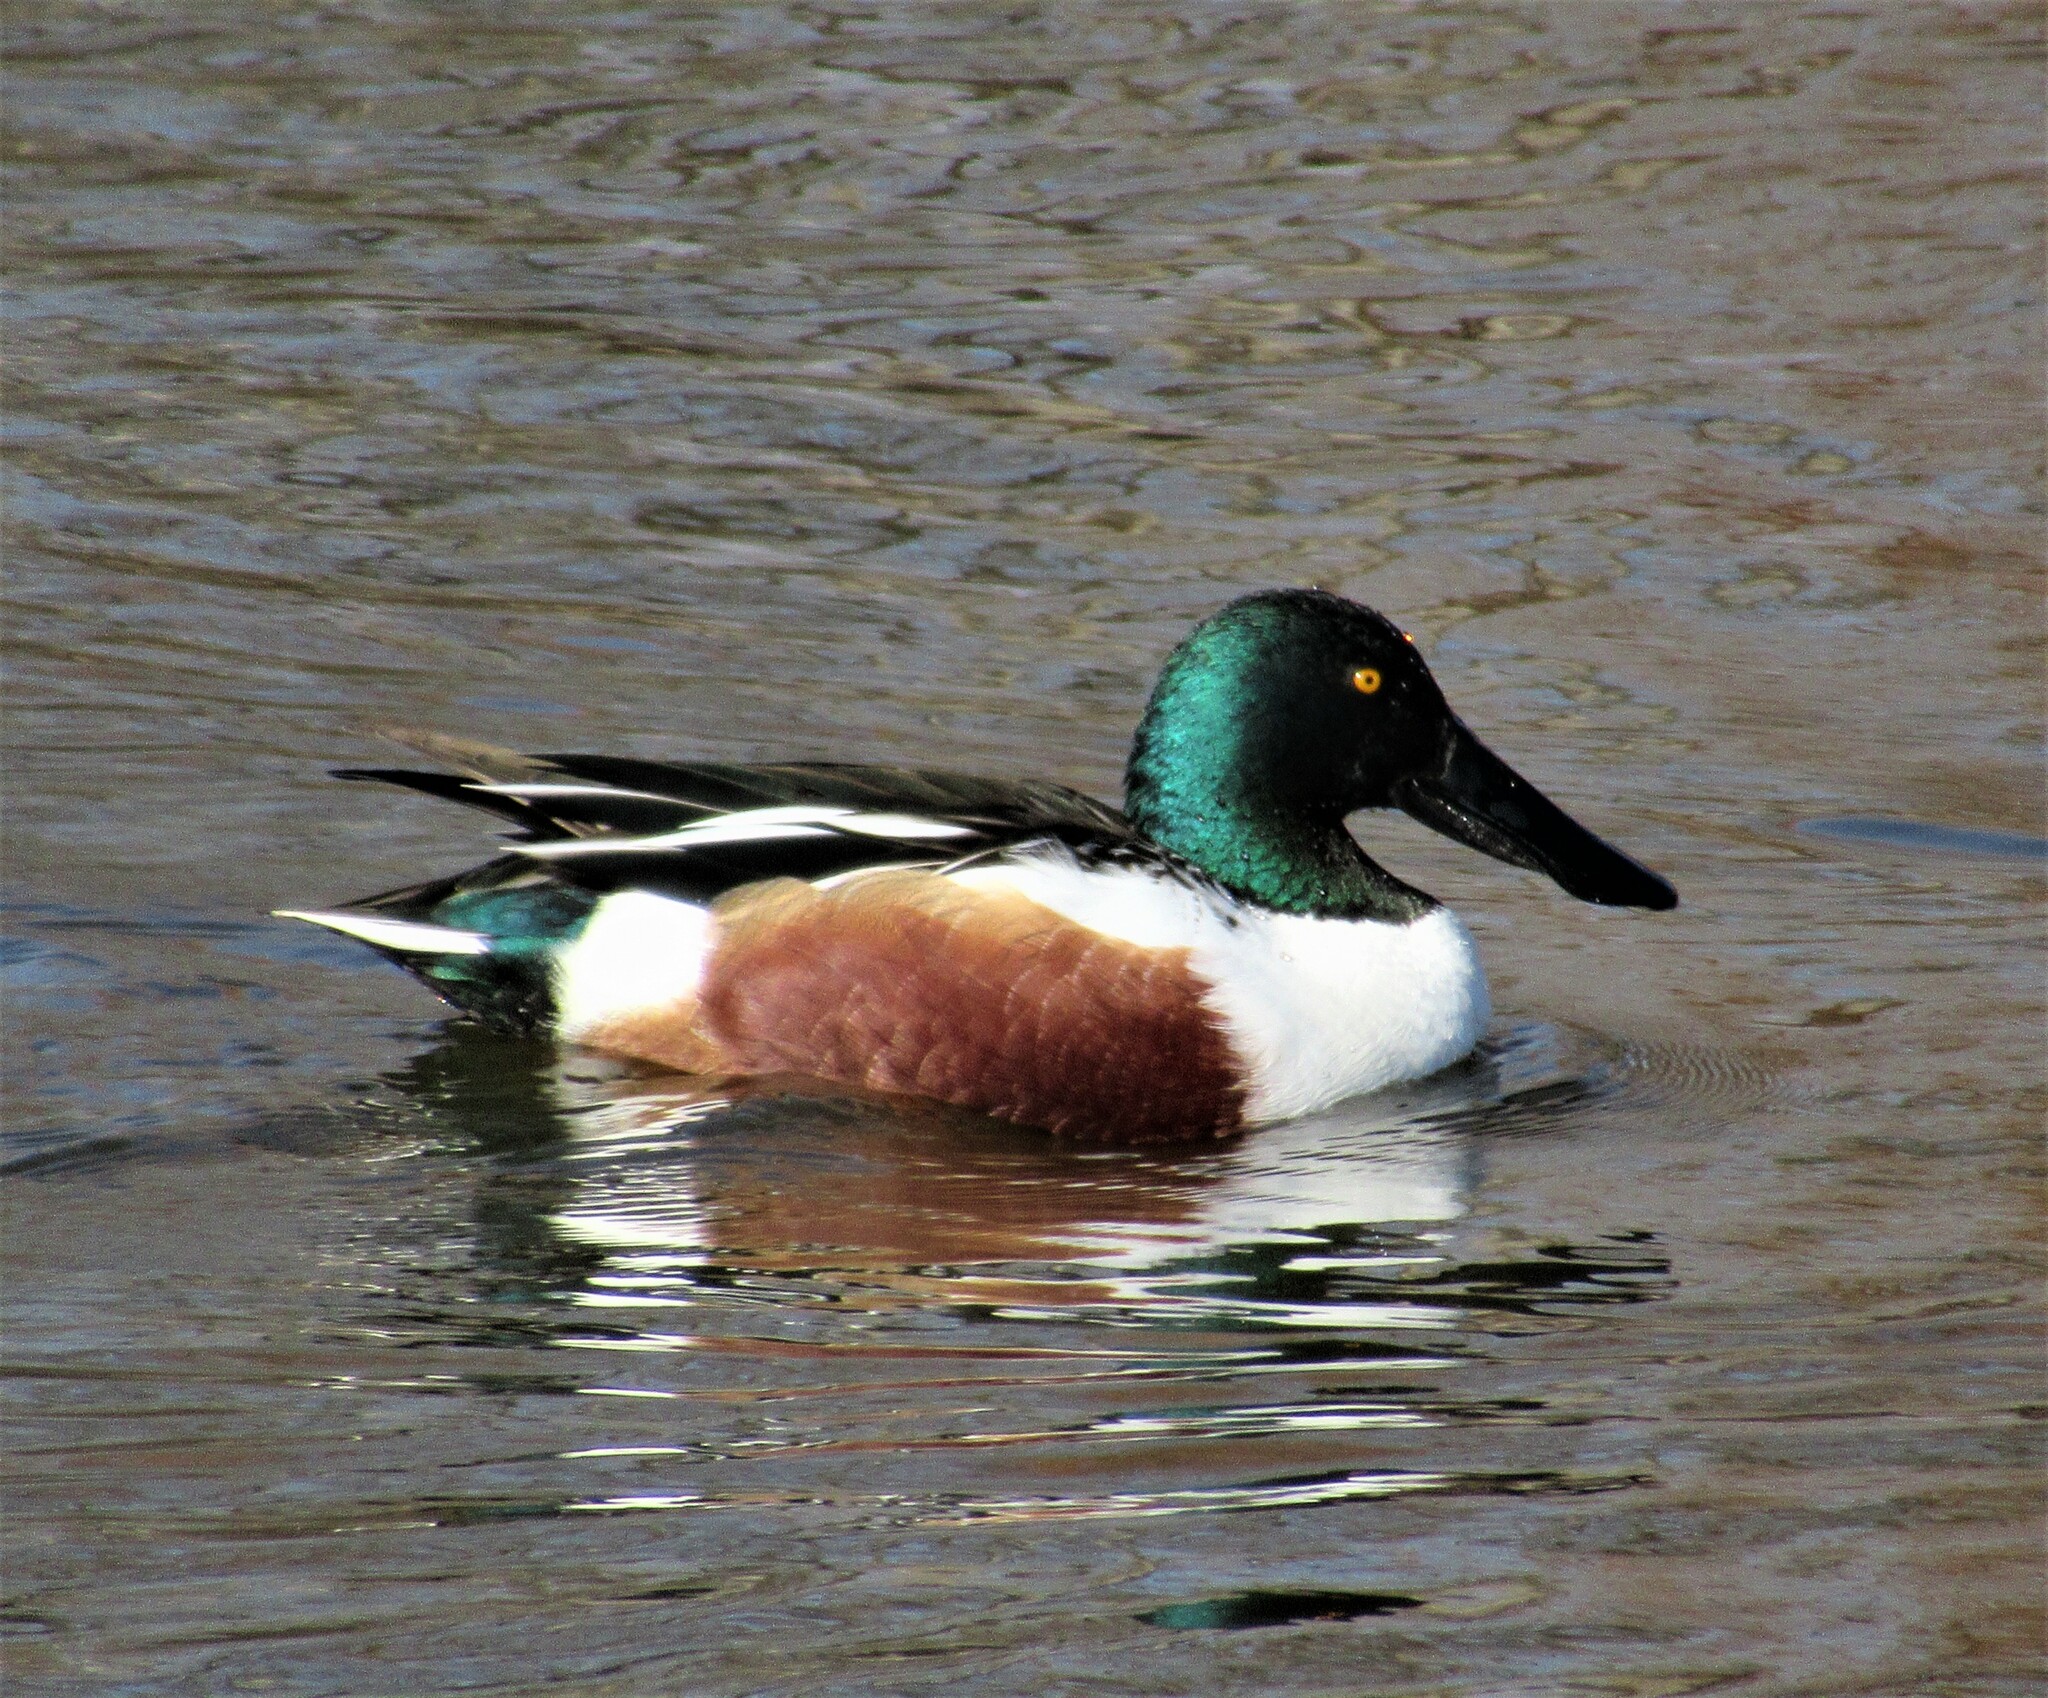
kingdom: Animalia
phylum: Chordata
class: Aves
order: Anseriformes
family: Anatidae
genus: Spatula
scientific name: Spatula clypeata
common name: Northern shoveler
